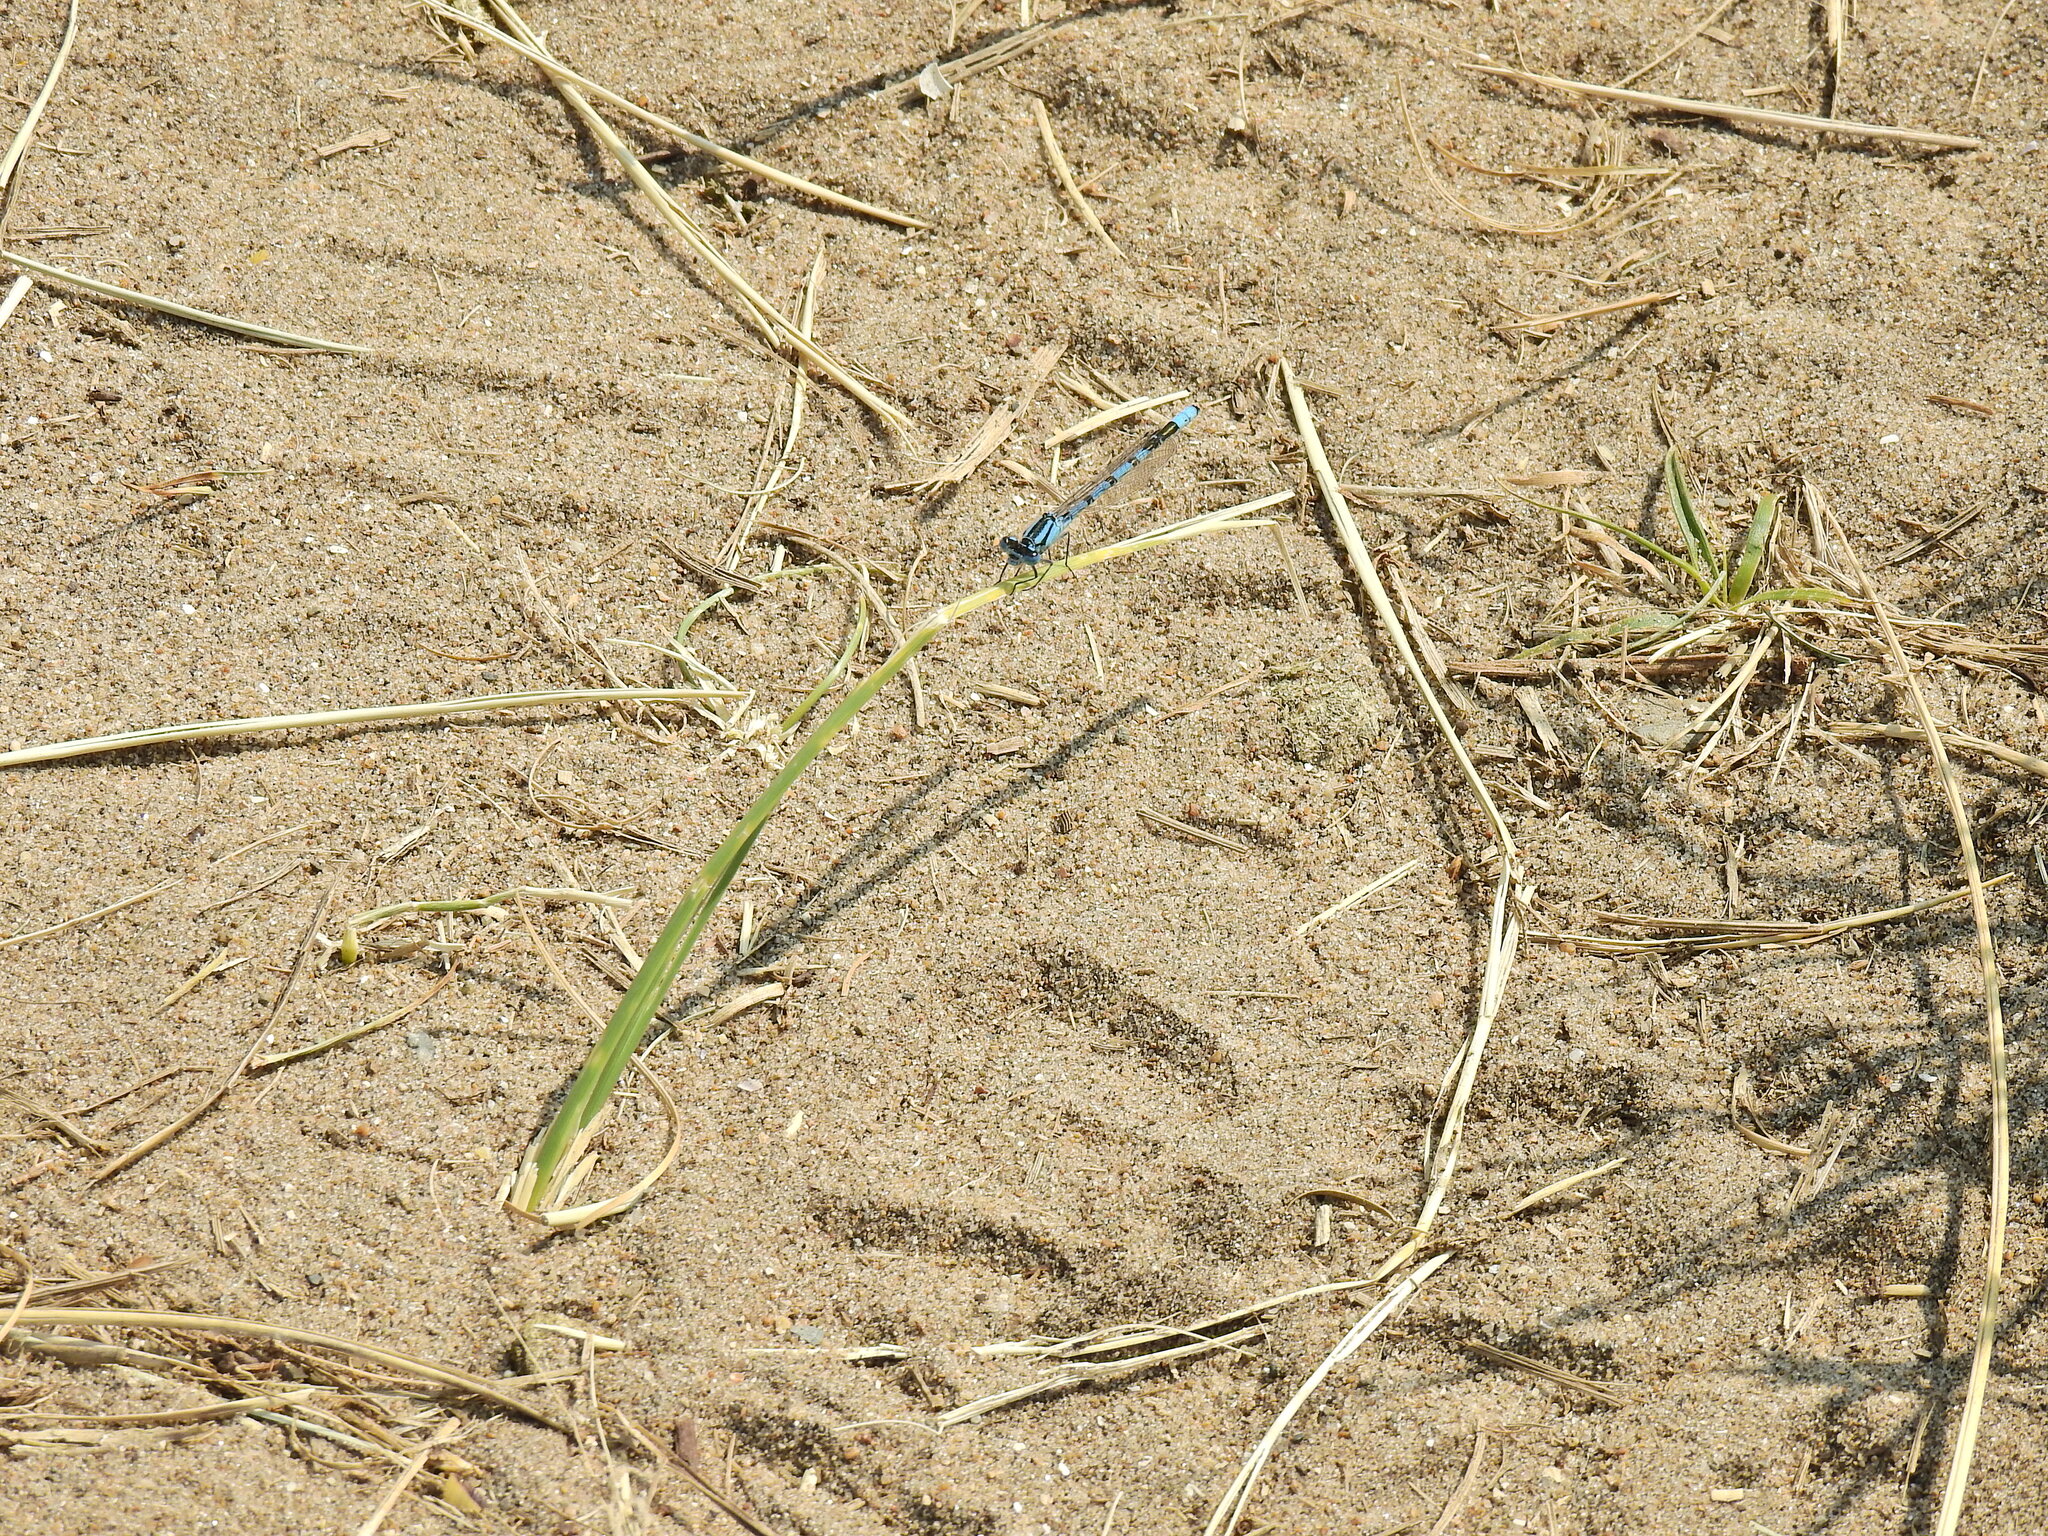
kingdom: Animalia
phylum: Arthropoda
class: Insecta
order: Odonata
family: Coenagrionidae
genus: Enallagma
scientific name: Enallagma cyathigerum
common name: Common blue damselfly
